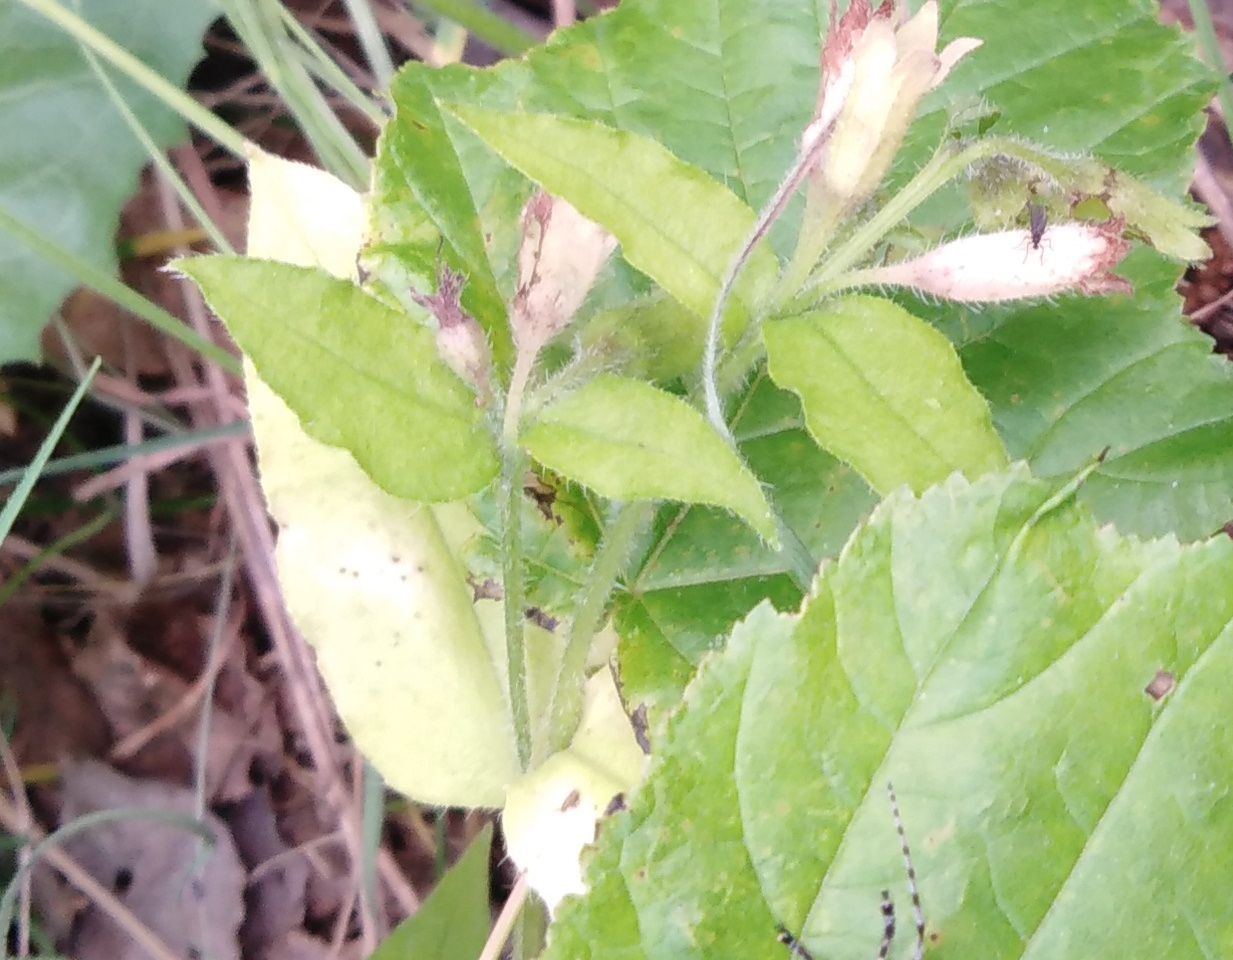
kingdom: Plantae
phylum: Tracheophyta
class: Magnoliopsida
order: Boraginales
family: Boraginaceae
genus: Pulmonaria
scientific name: Pulmonaria obscura
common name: Suffolk lungwort
